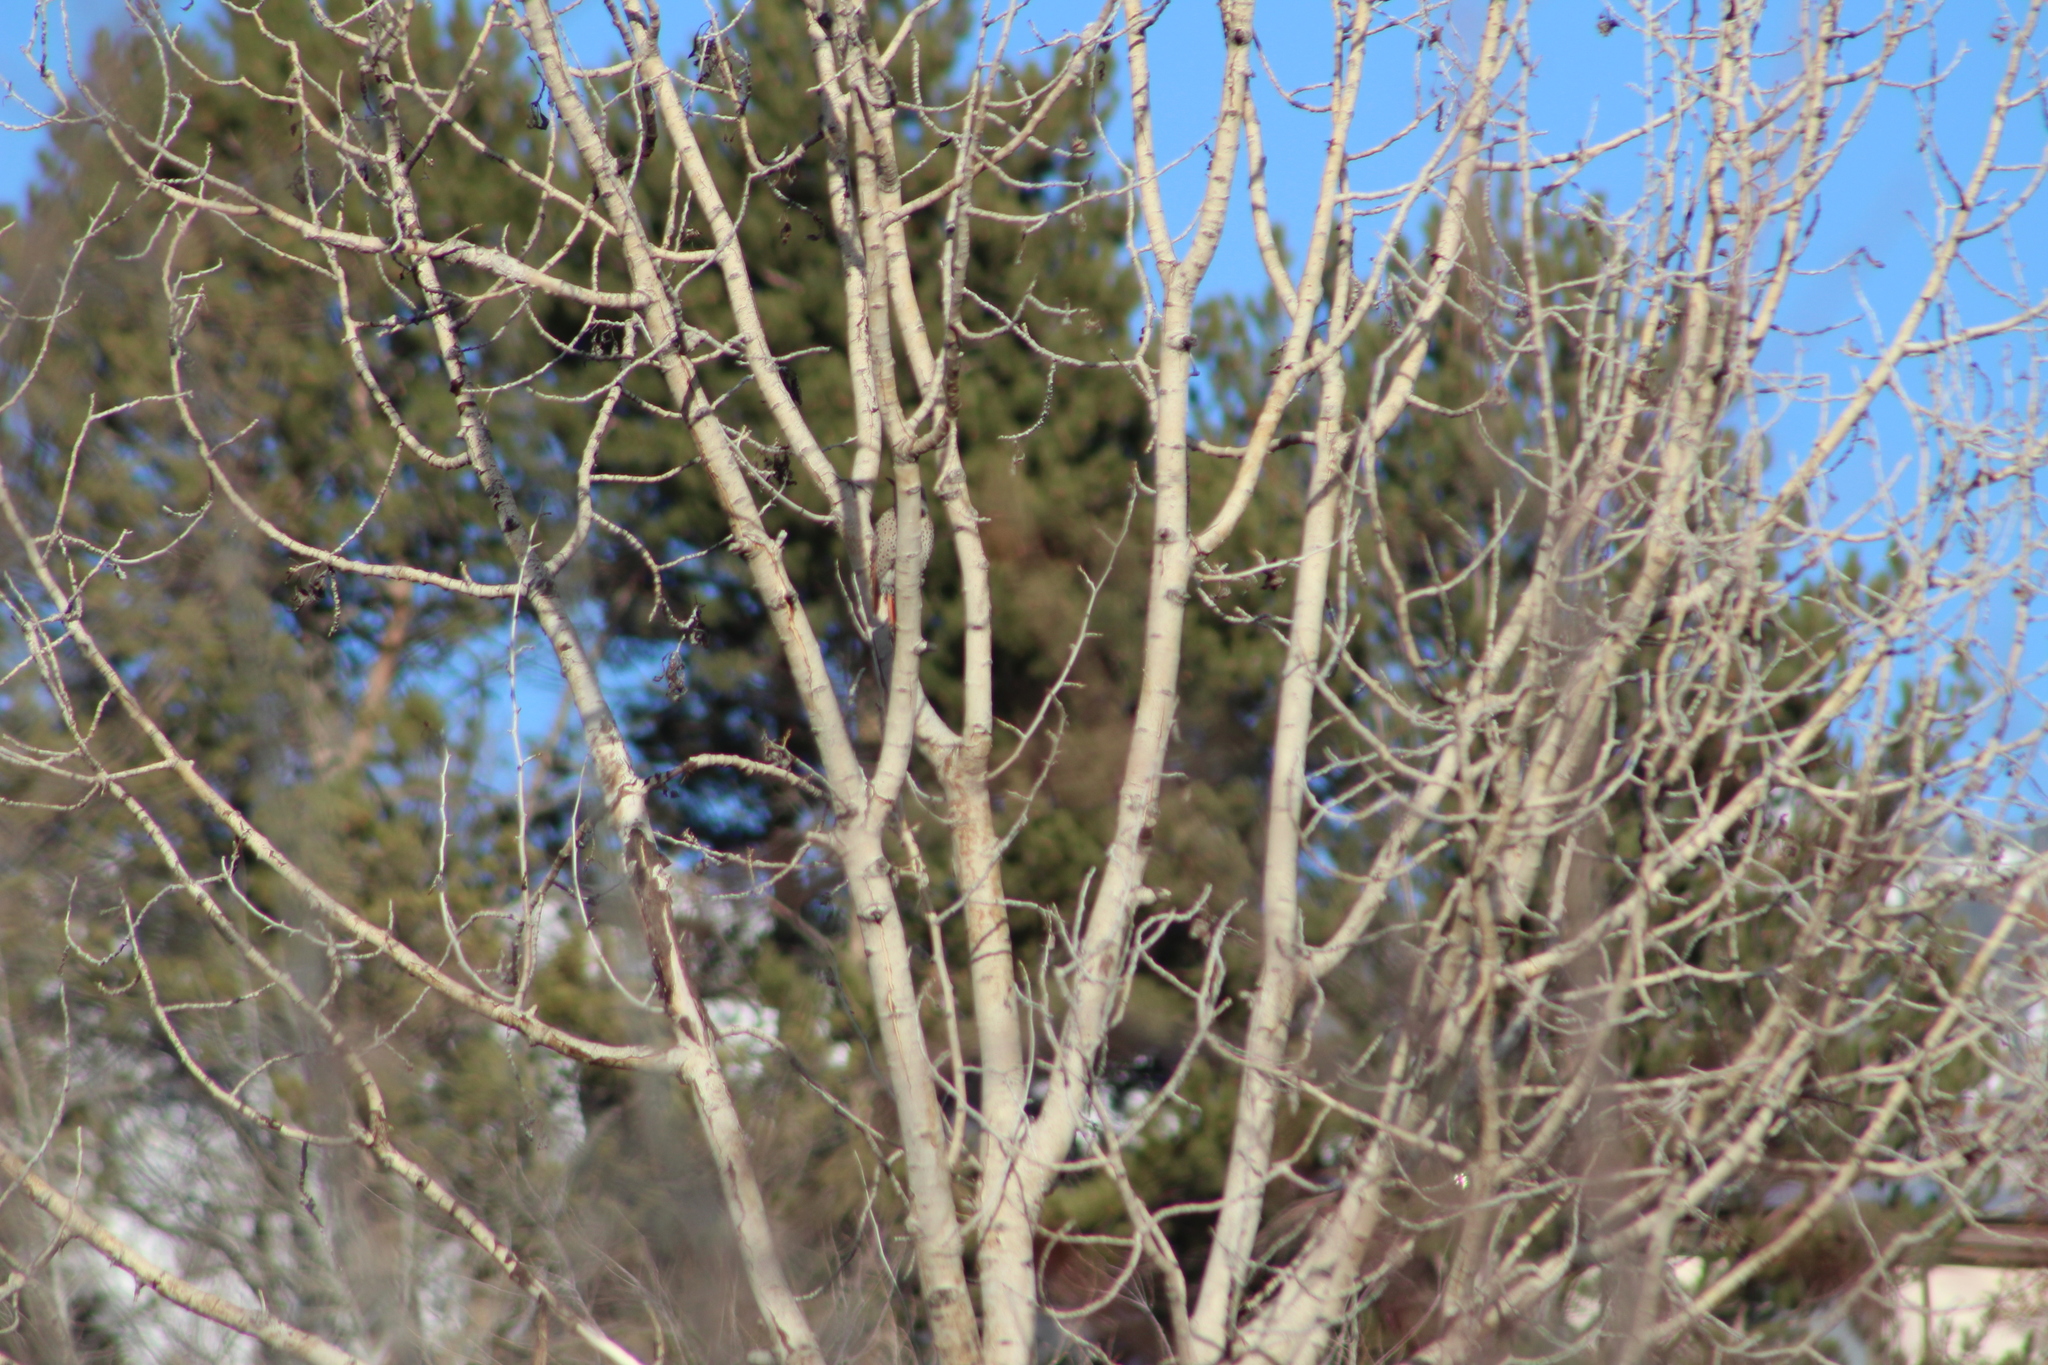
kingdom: Animalia
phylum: Chordata
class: Aves
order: Piciformes
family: Picidae
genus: Colaptes
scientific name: Colaptes auratus
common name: Northern flicker
